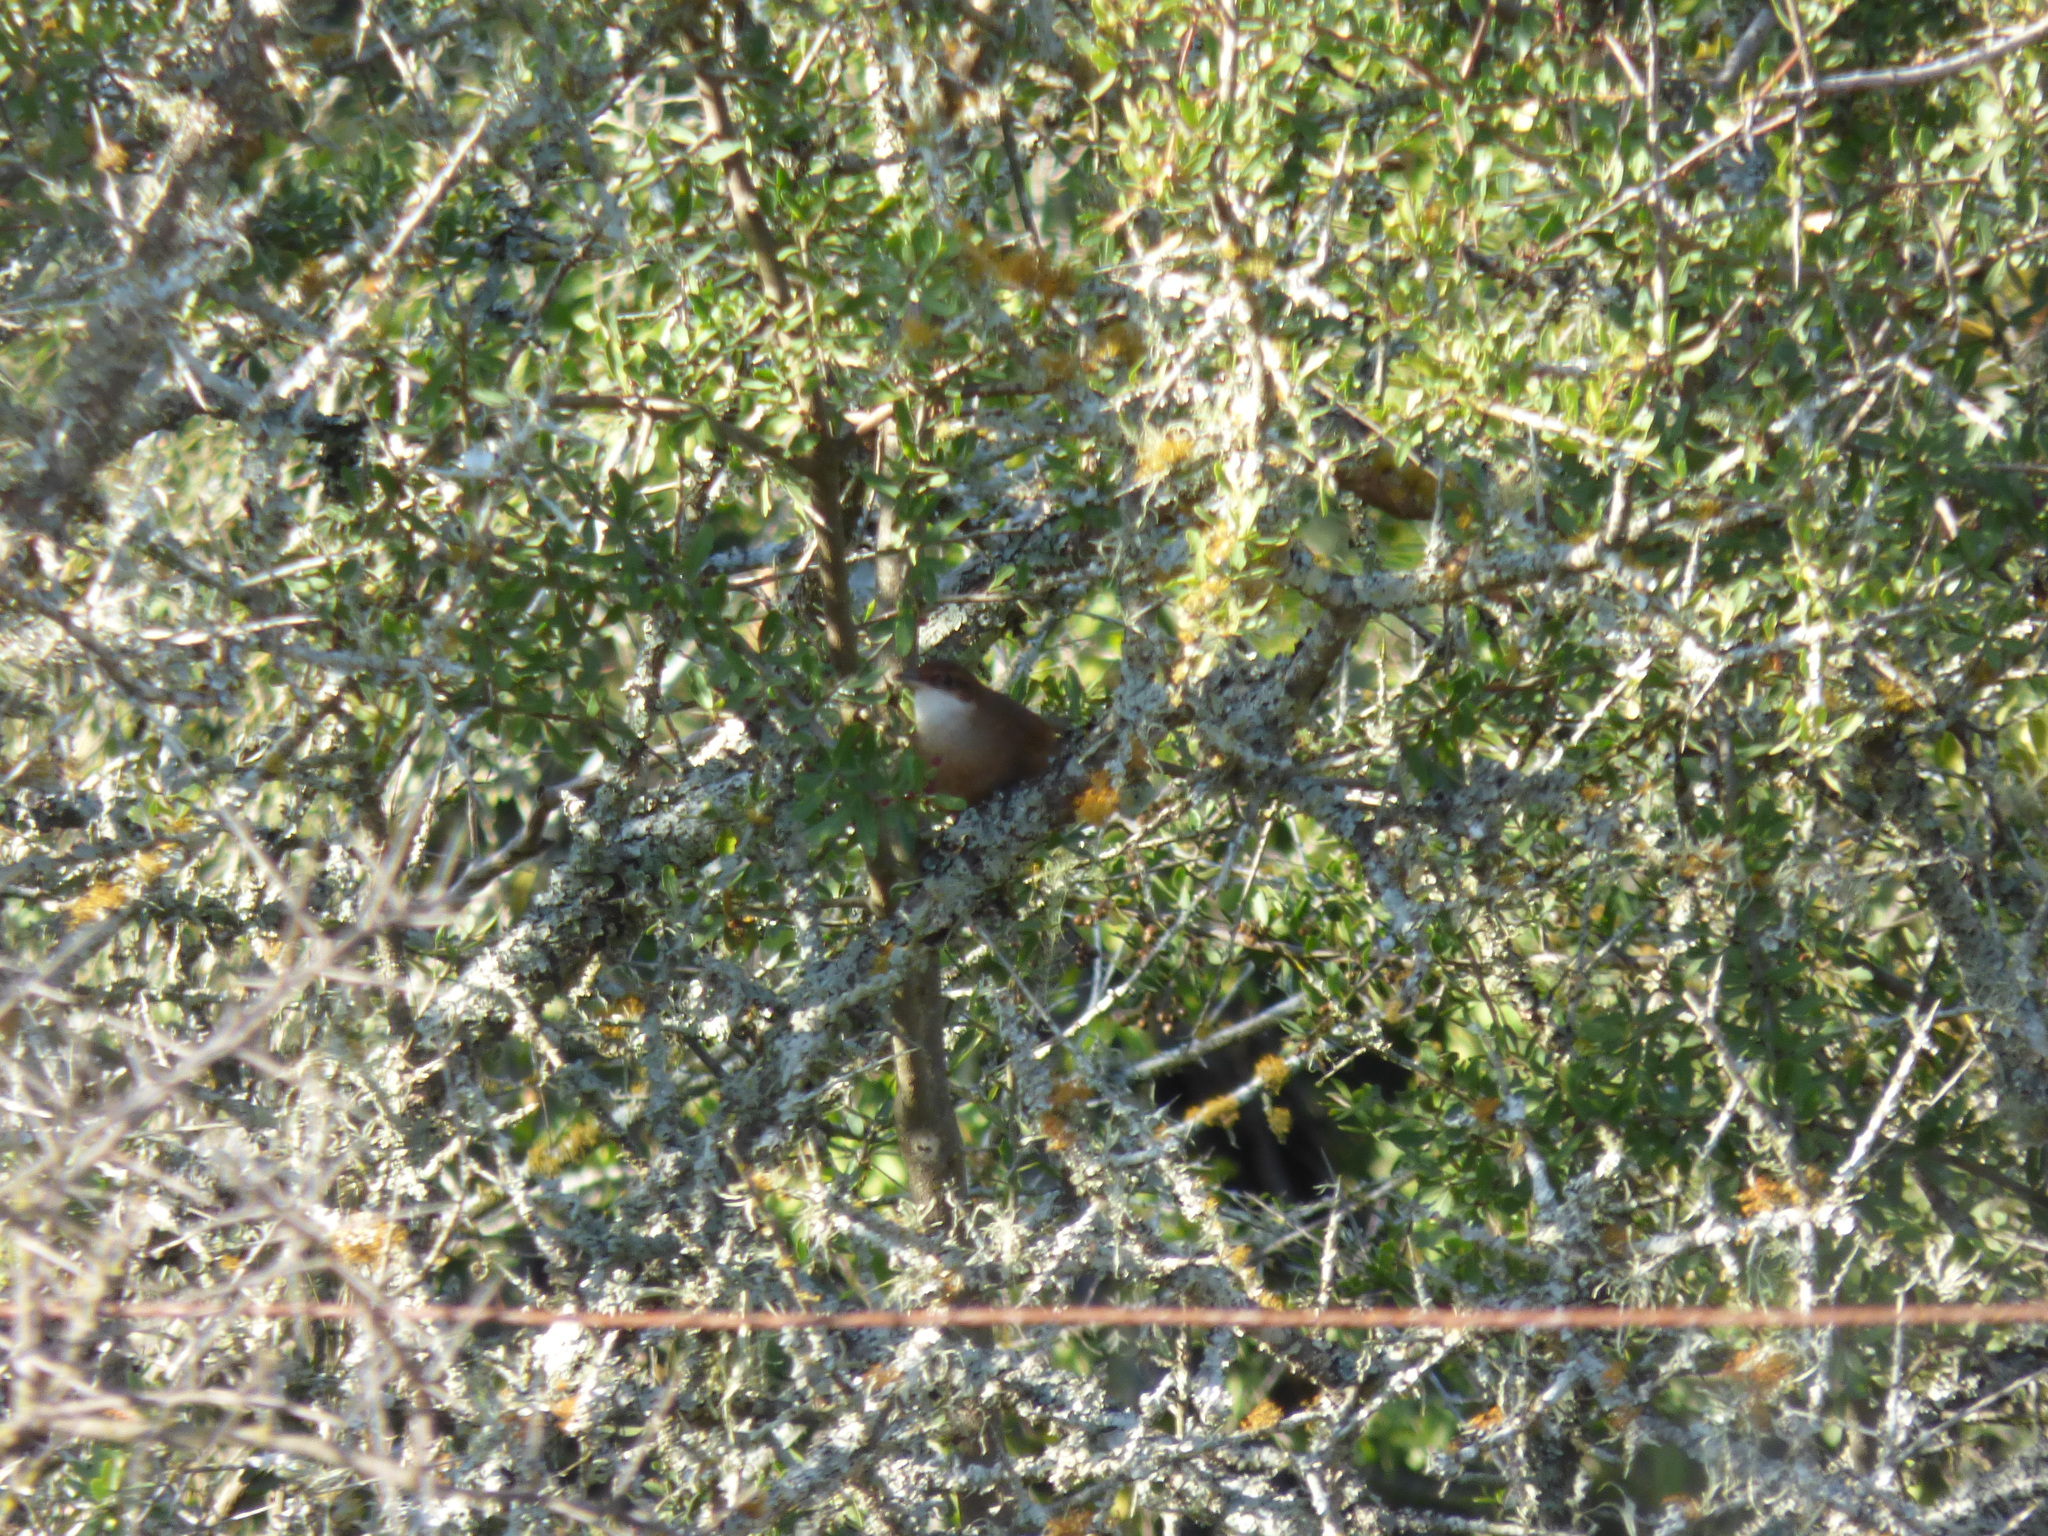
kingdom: Animalia
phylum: Chordata
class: Aves
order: Passeriformes
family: Furnariidae
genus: Upucerthia
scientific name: Upucerthia certhioides
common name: Chaco earthcreeper
